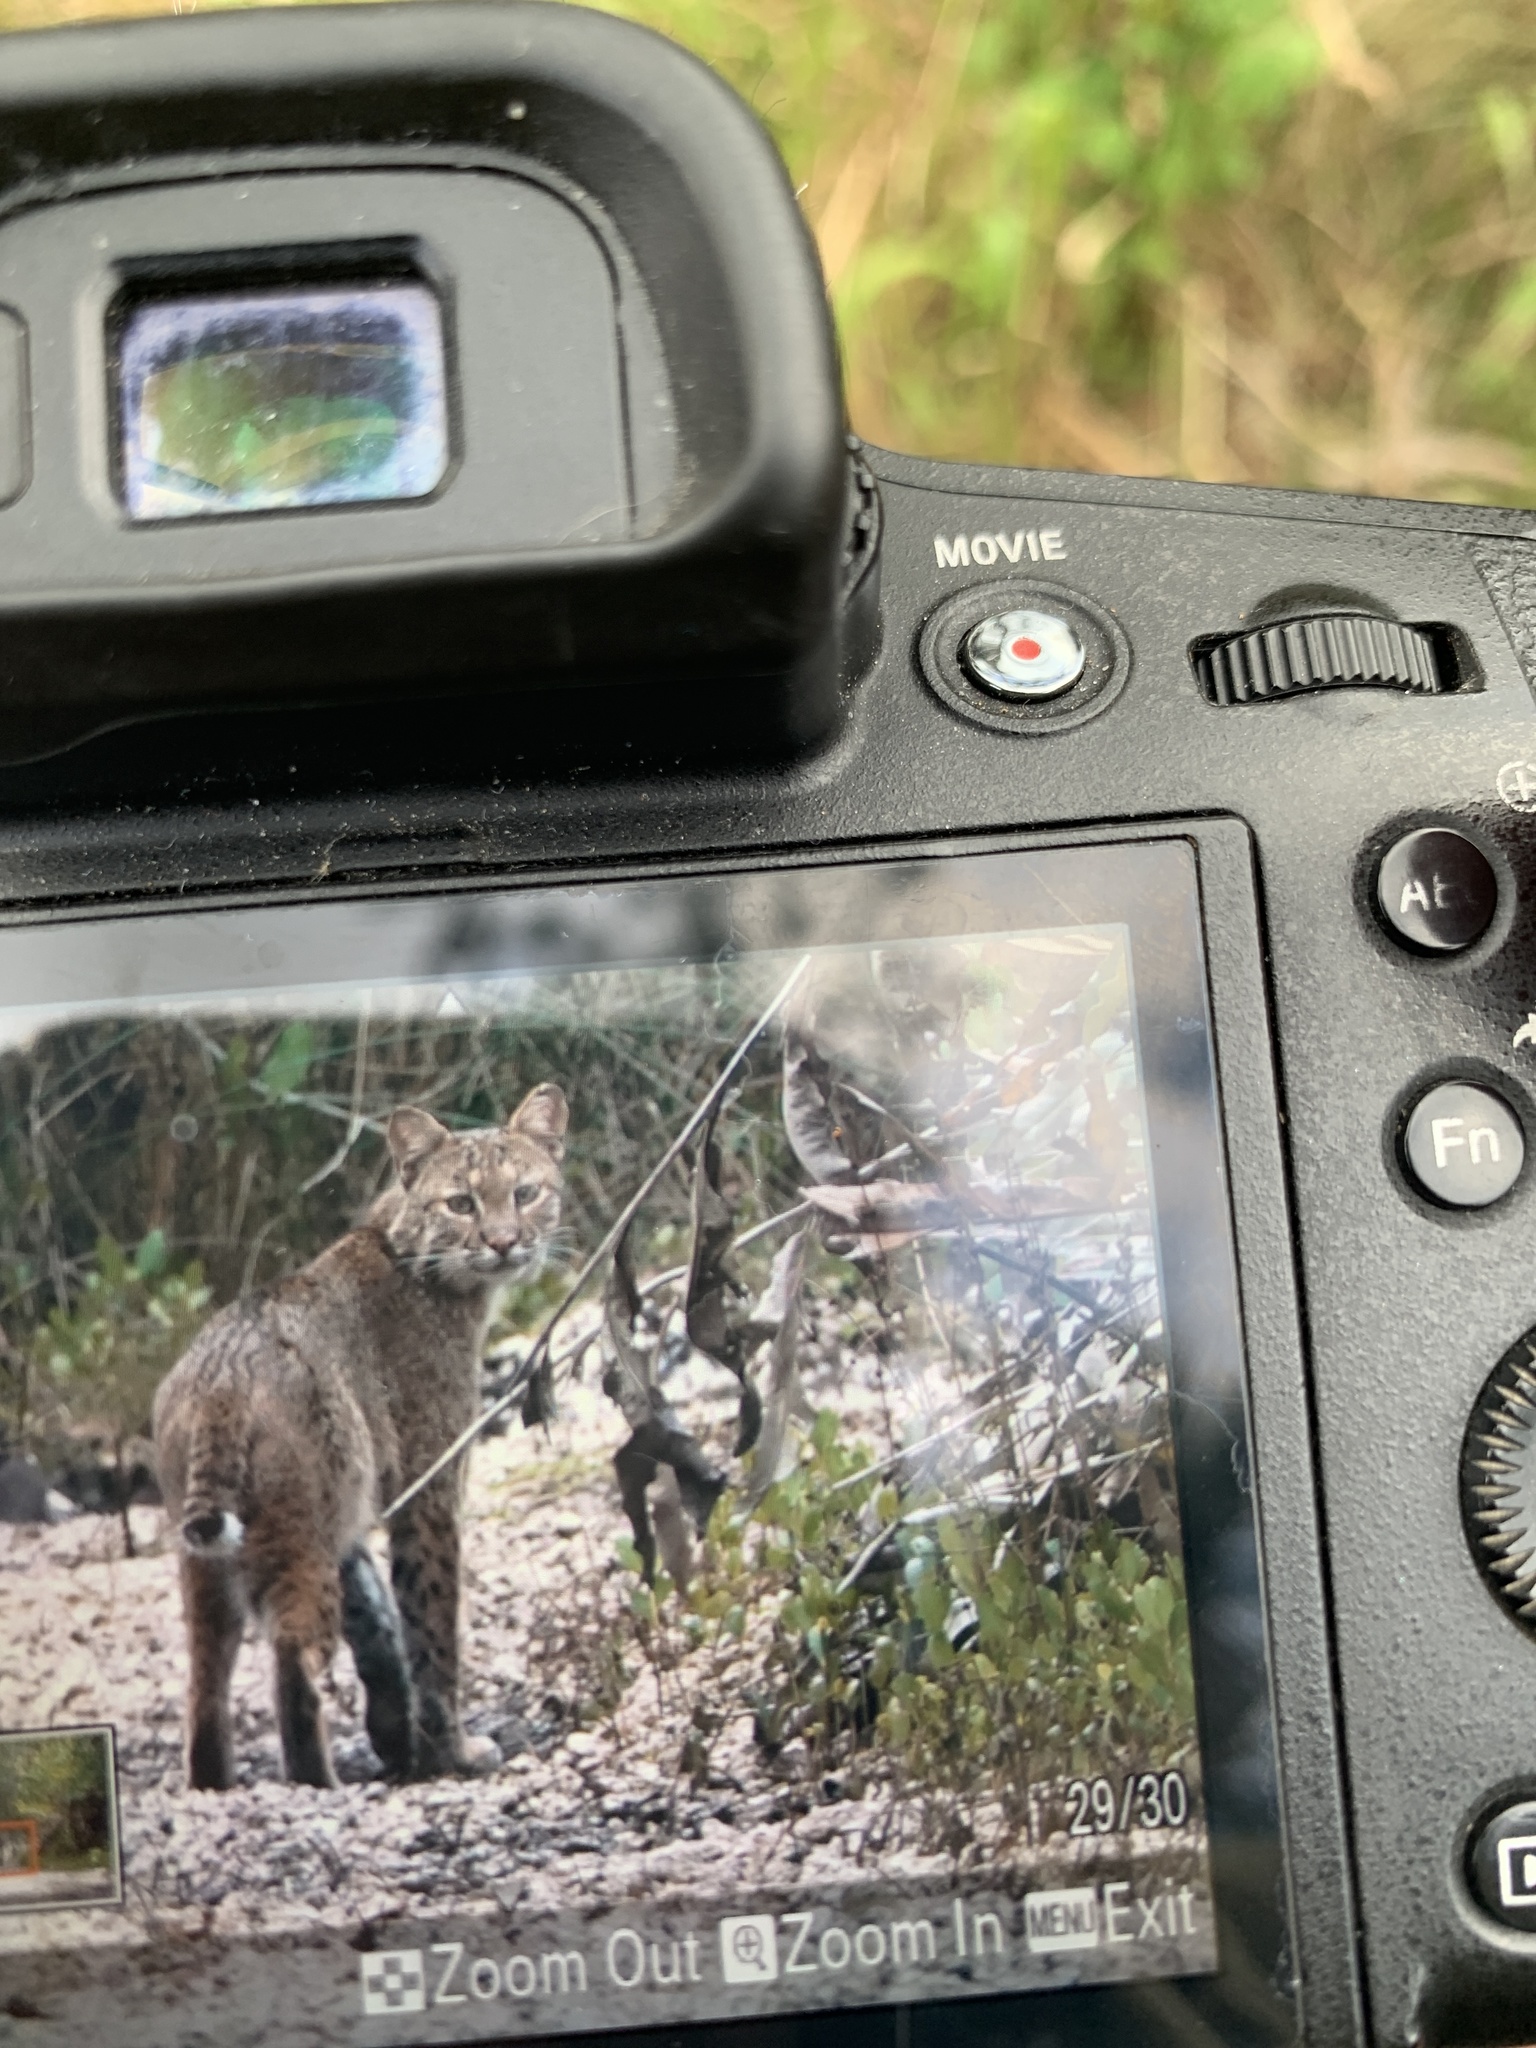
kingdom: Animalia
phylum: Chordata
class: Mammalia
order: Carnivora
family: Felidae
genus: Lynx
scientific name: Lynx rufus
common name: Bobcat
